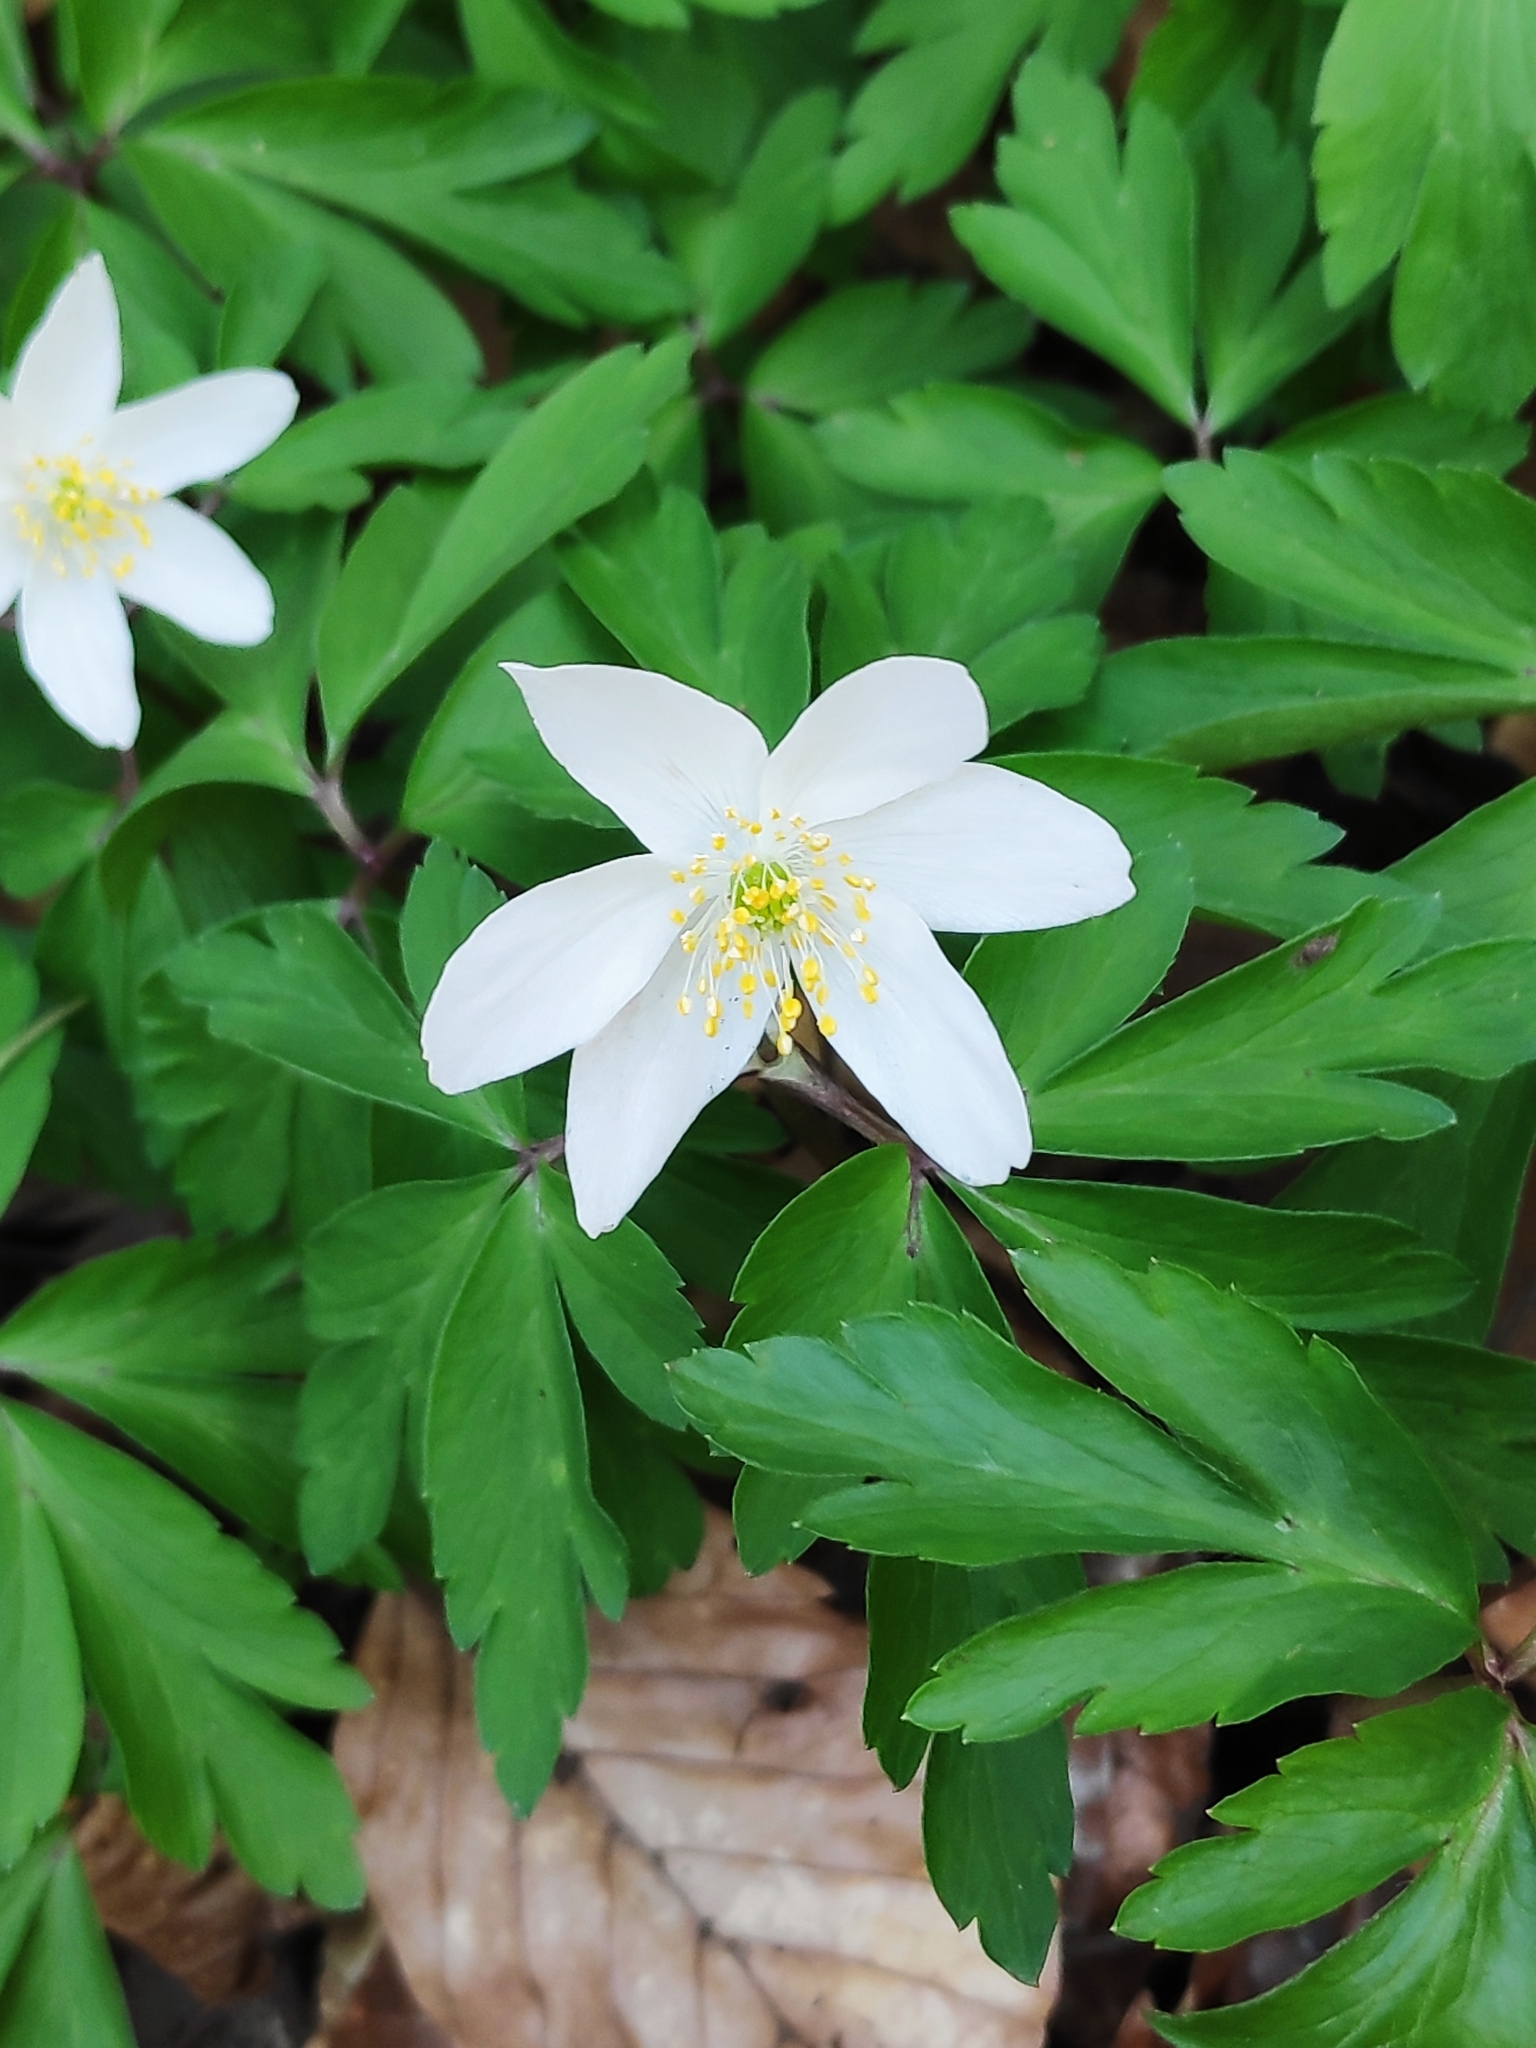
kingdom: Plantae
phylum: Tracheophyta
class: Magnoliopsida
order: Ranunculales
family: Ranunculaceae
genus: Anemone
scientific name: Anemone nemorosa
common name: Wood anemone
